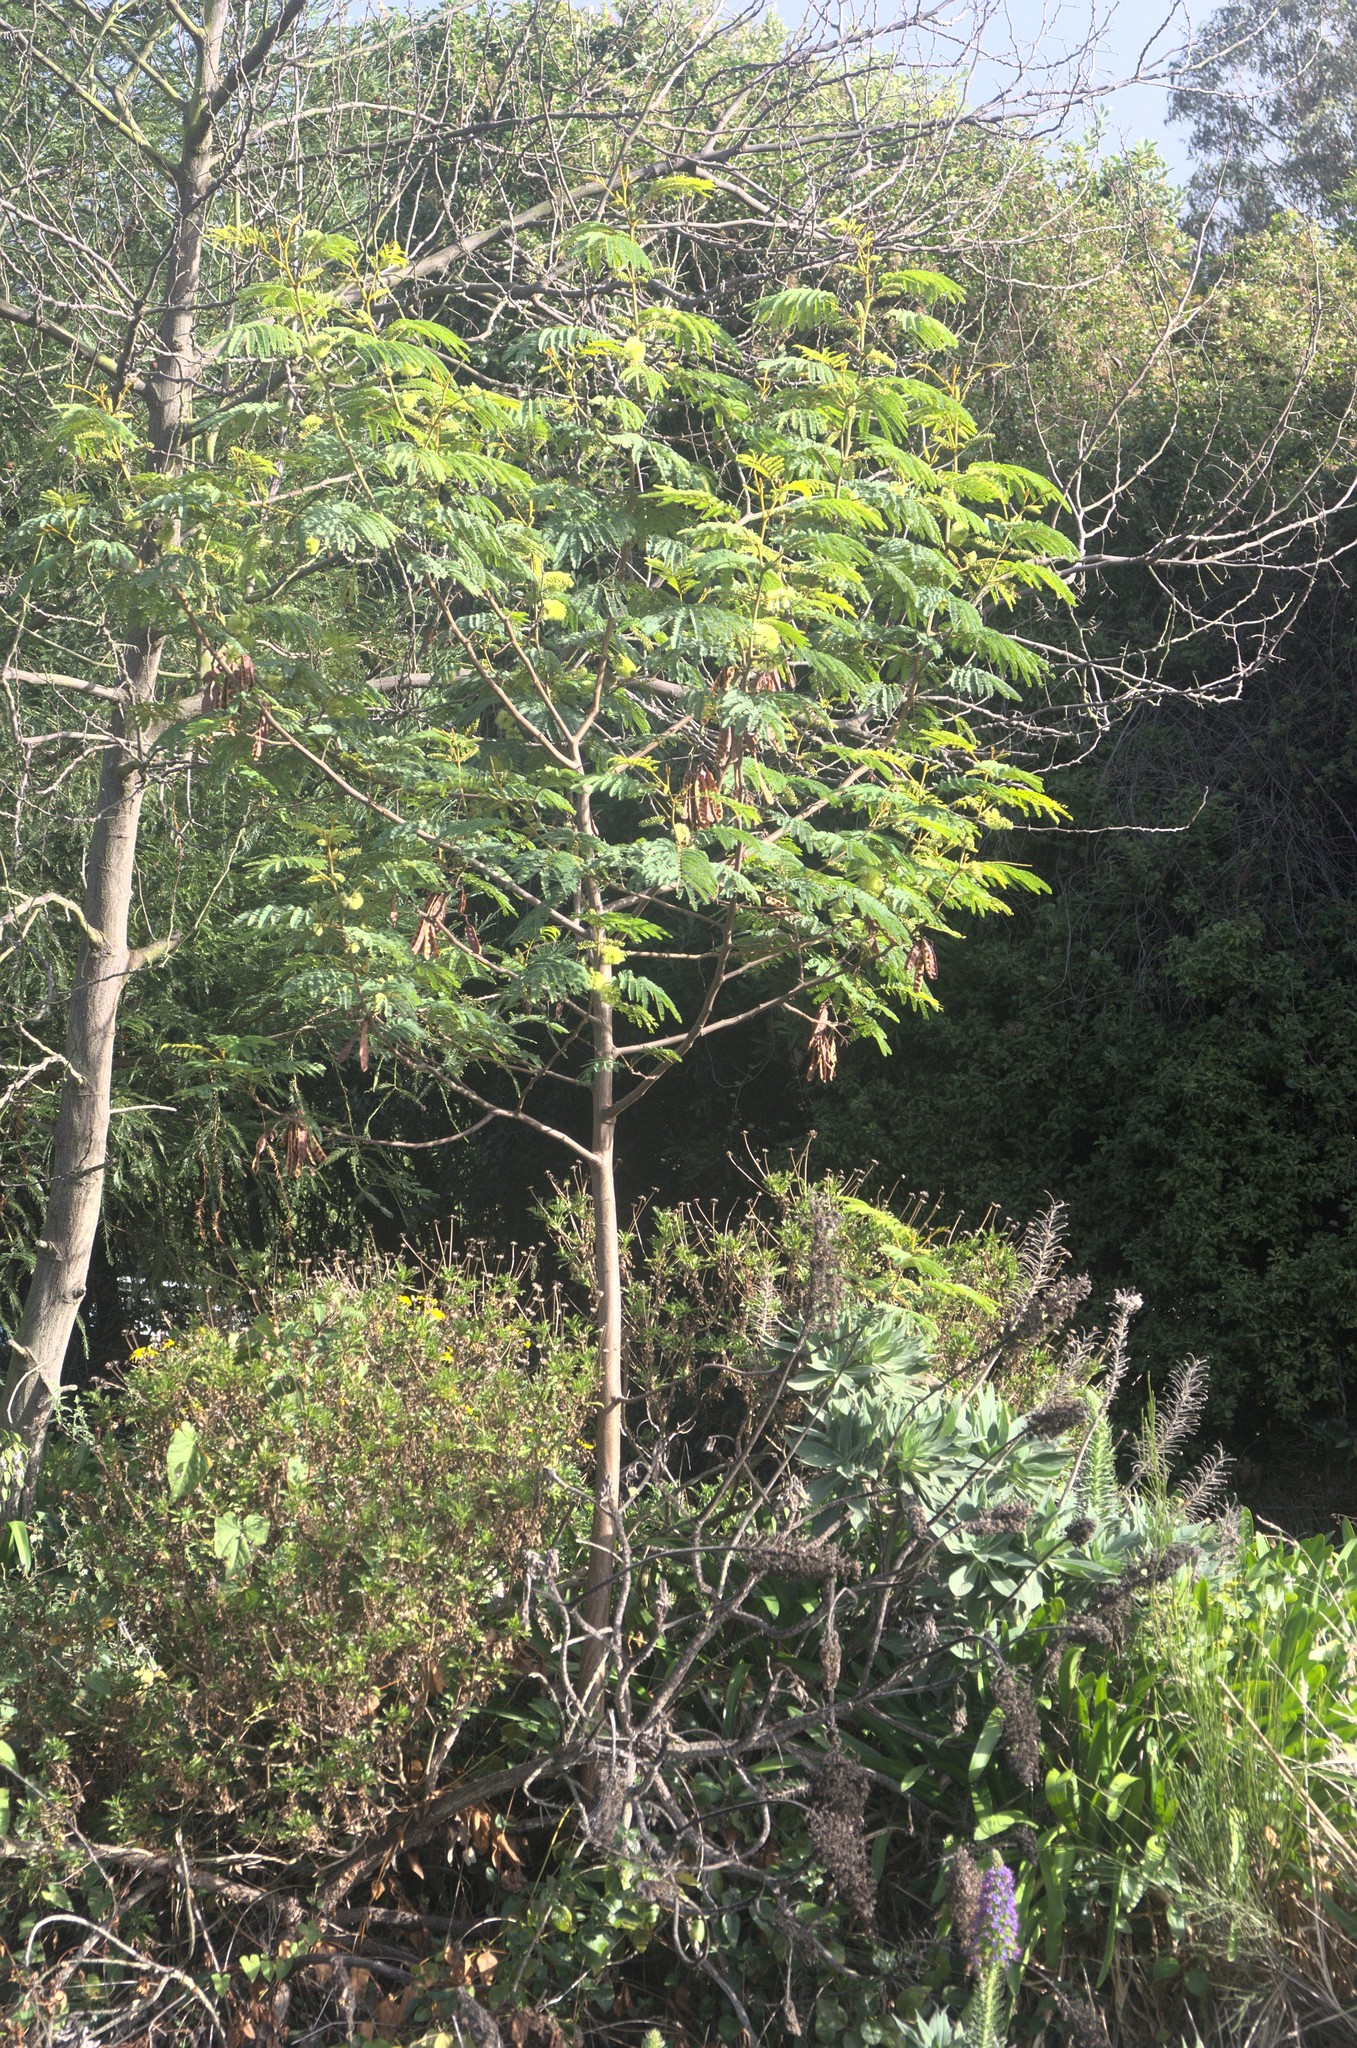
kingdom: Plantae
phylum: Tracheophyta
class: Magnoliopsida
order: Fabales
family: Fabaceae
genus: Paraserianthes
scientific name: Paraserianthes lophantha
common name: Plume albizia
